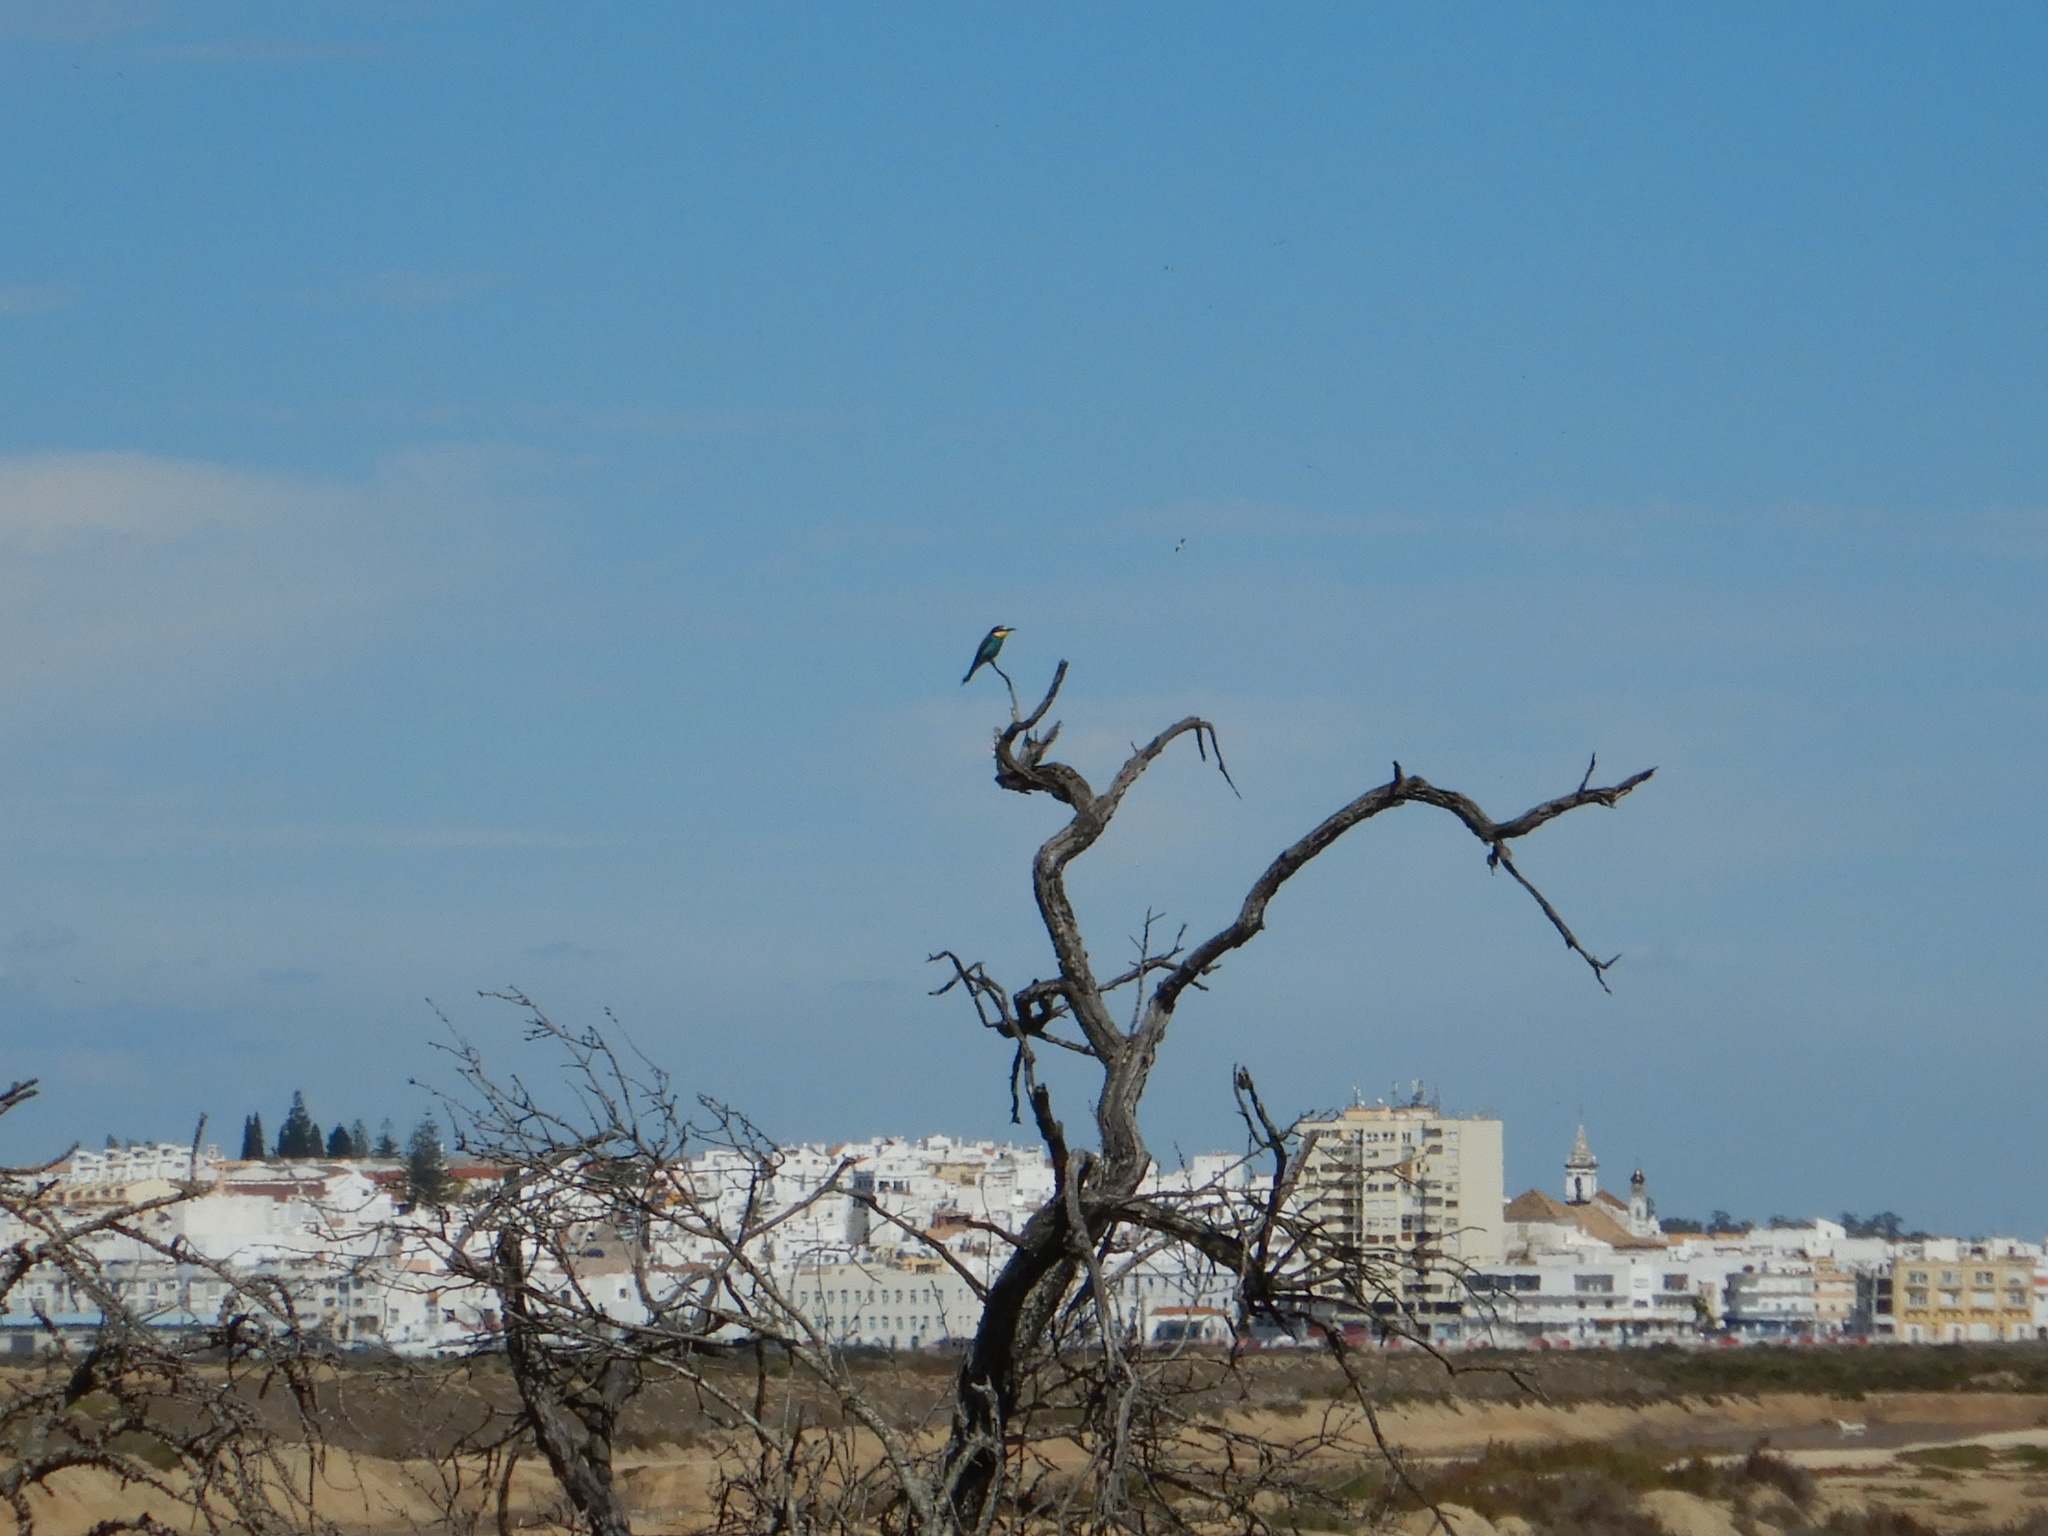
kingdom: Animalia
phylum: Chordata
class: Aves
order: Coraciiformes
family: Meropidae
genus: Merops
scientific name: Merops apiaster
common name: European bee-eater
